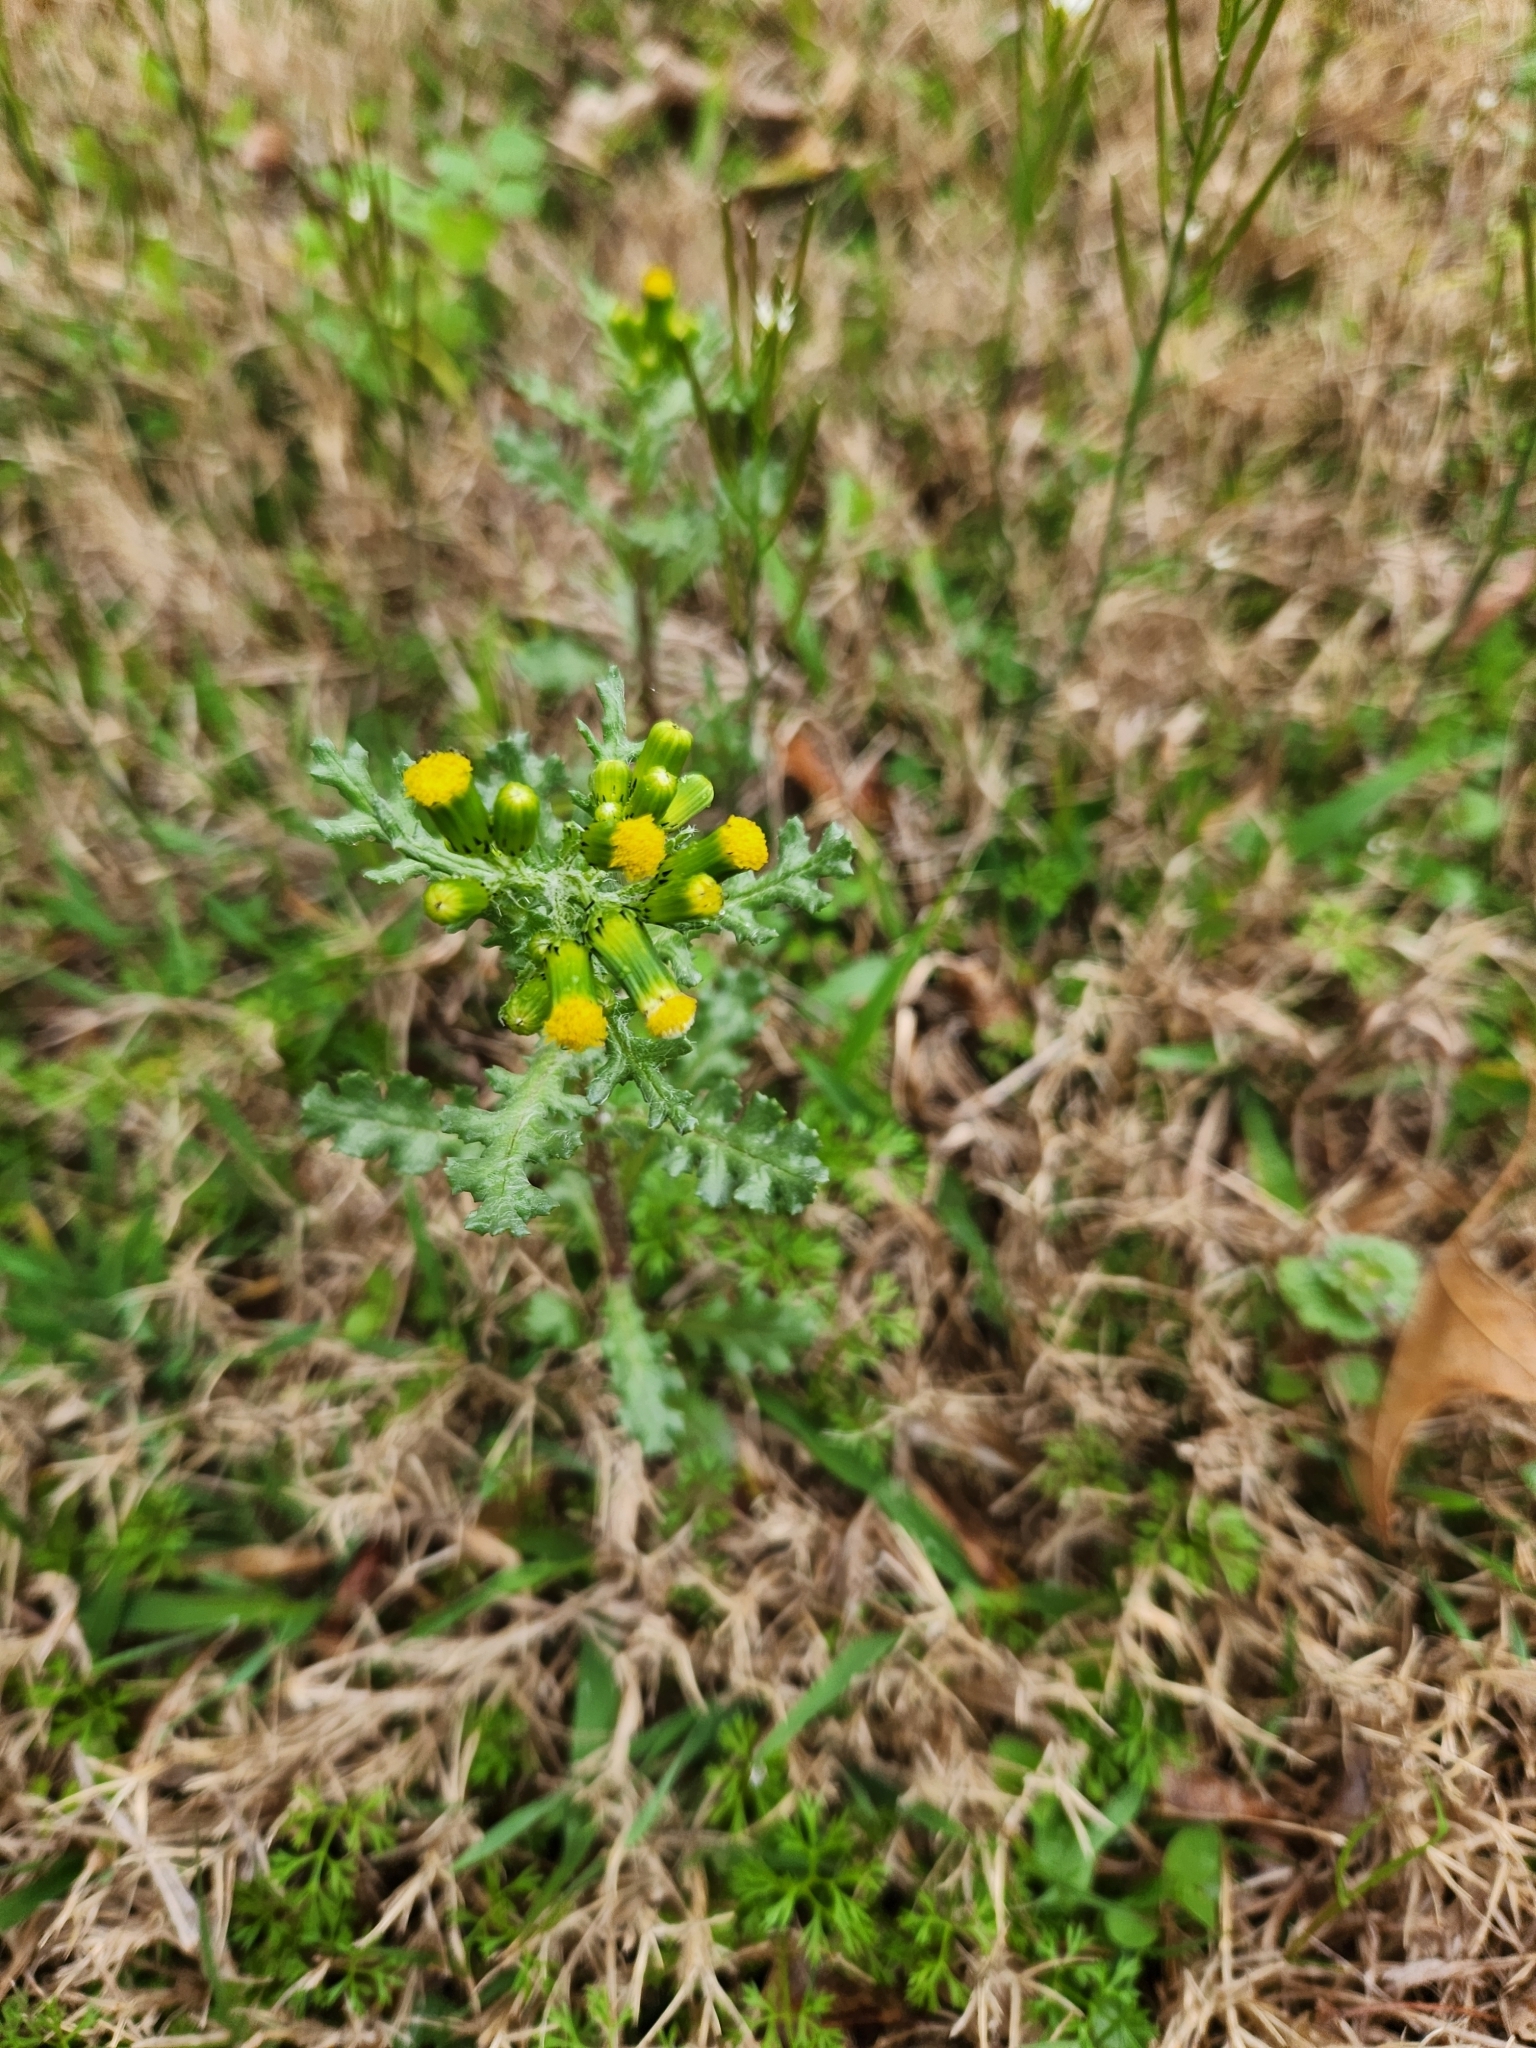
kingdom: Plantae
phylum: Tracheophyta
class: Magnoliopsida
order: Asterales
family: Asteraceae
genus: Senecio
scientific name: Senecio vulgaris
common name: Old-man-in-the-spring
